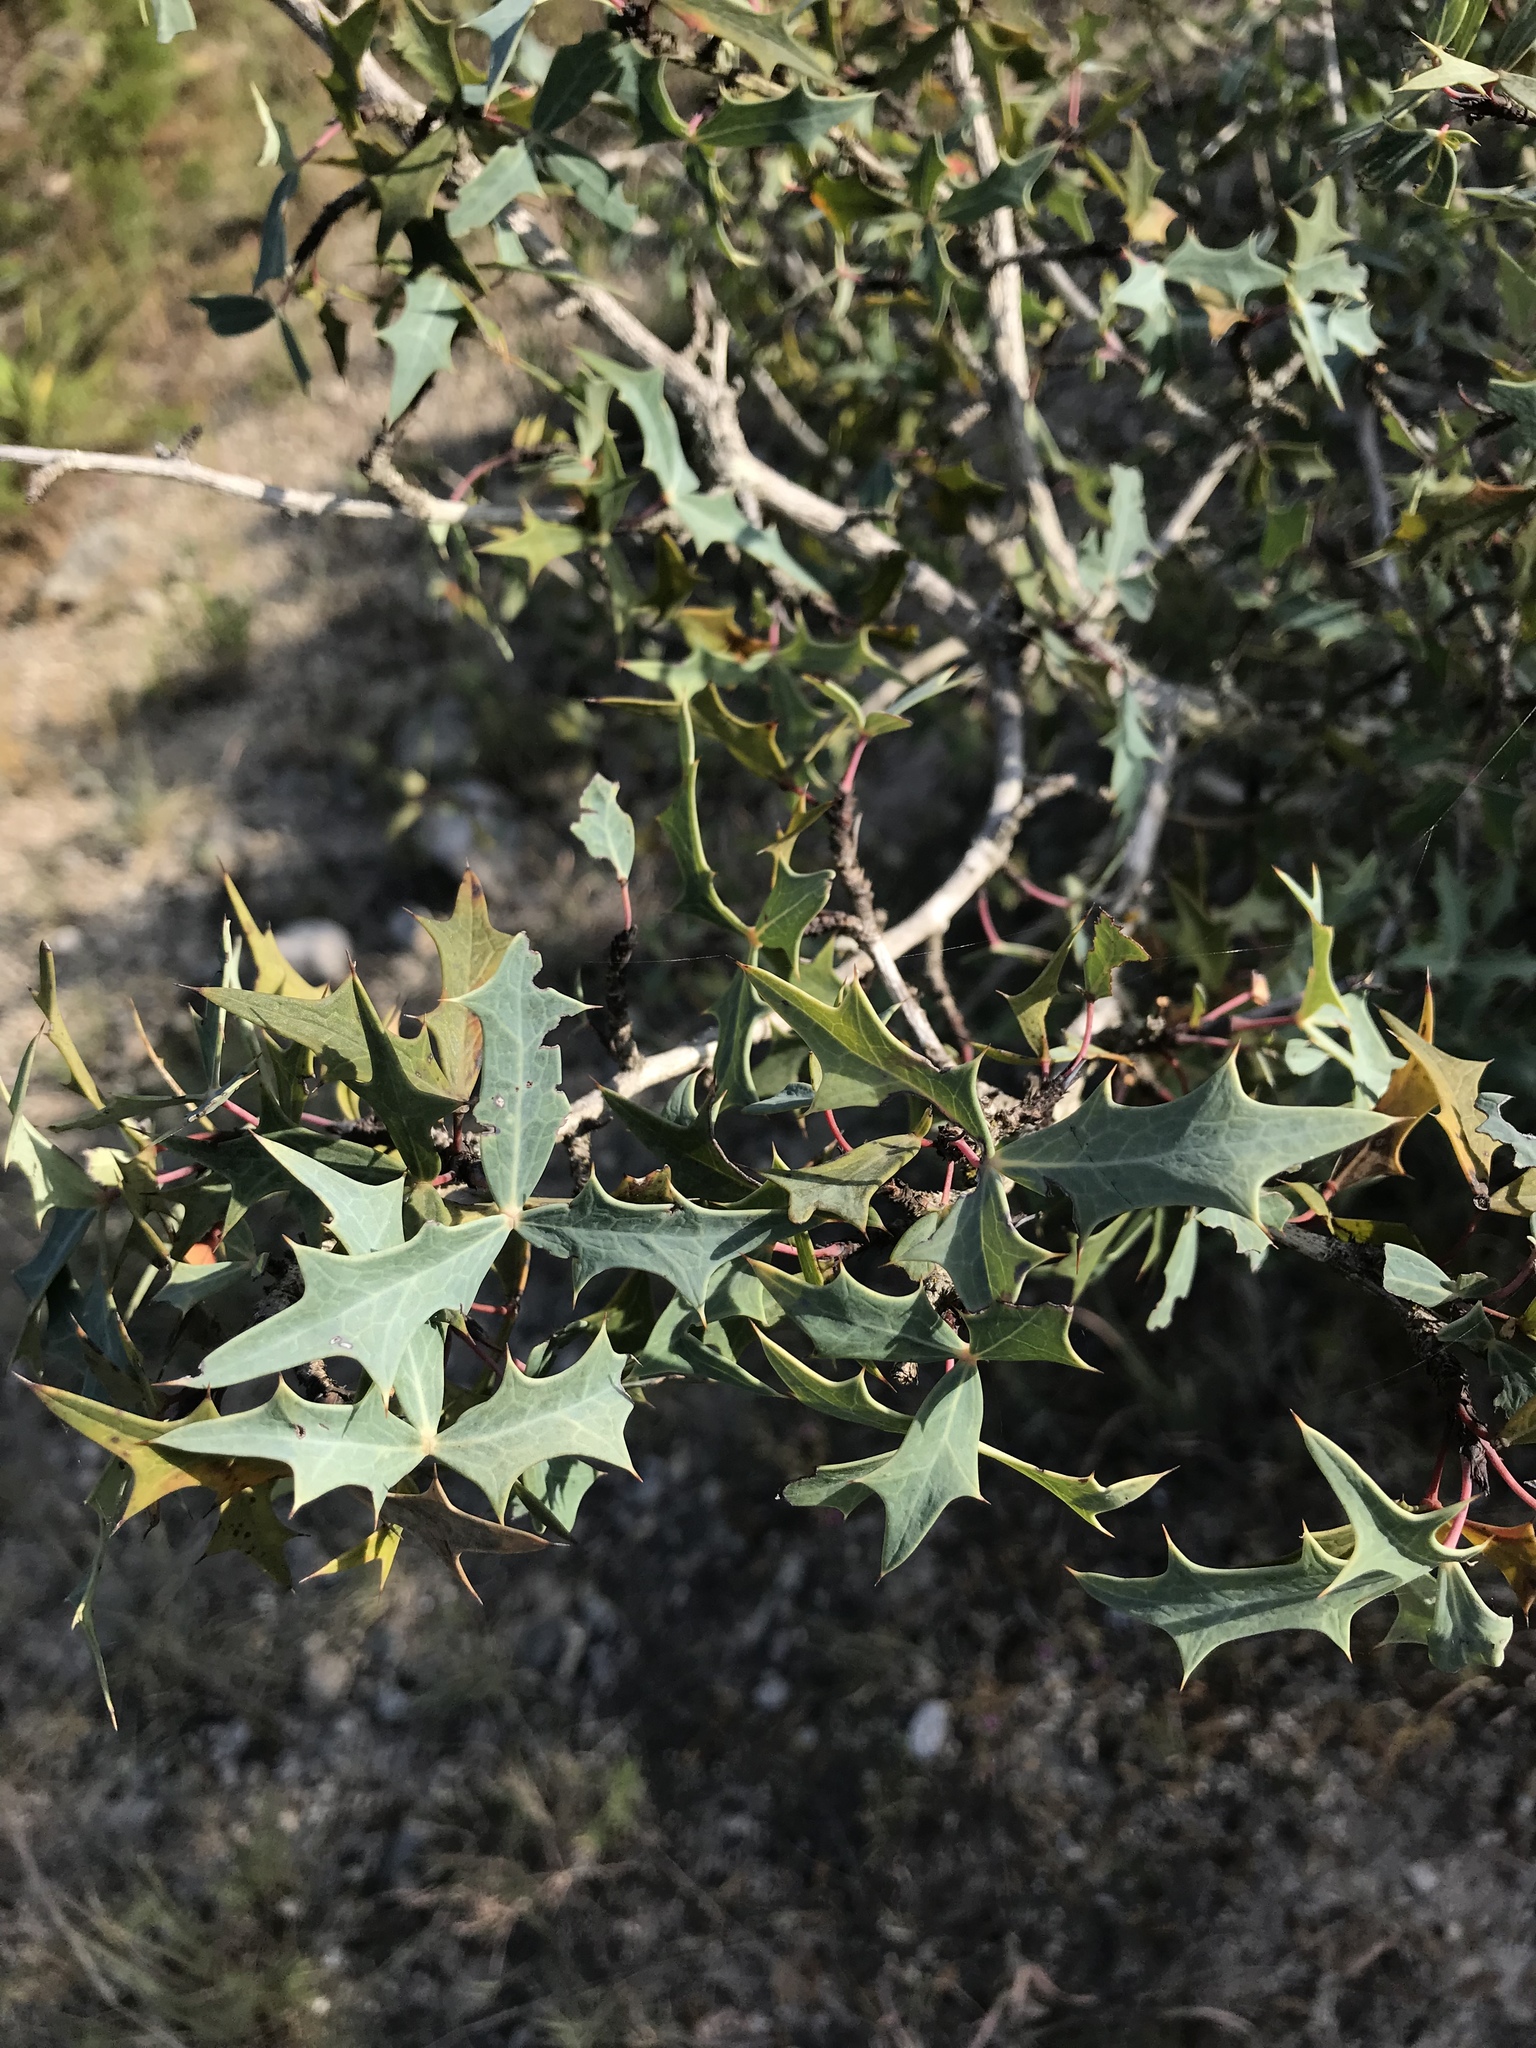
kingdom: Plantae
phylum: Tracheophyta
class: Magnoliopsida
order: Ranunculales
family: Berberidaceae
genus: Alloberberis
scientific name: Alloberberis trifoliolata
